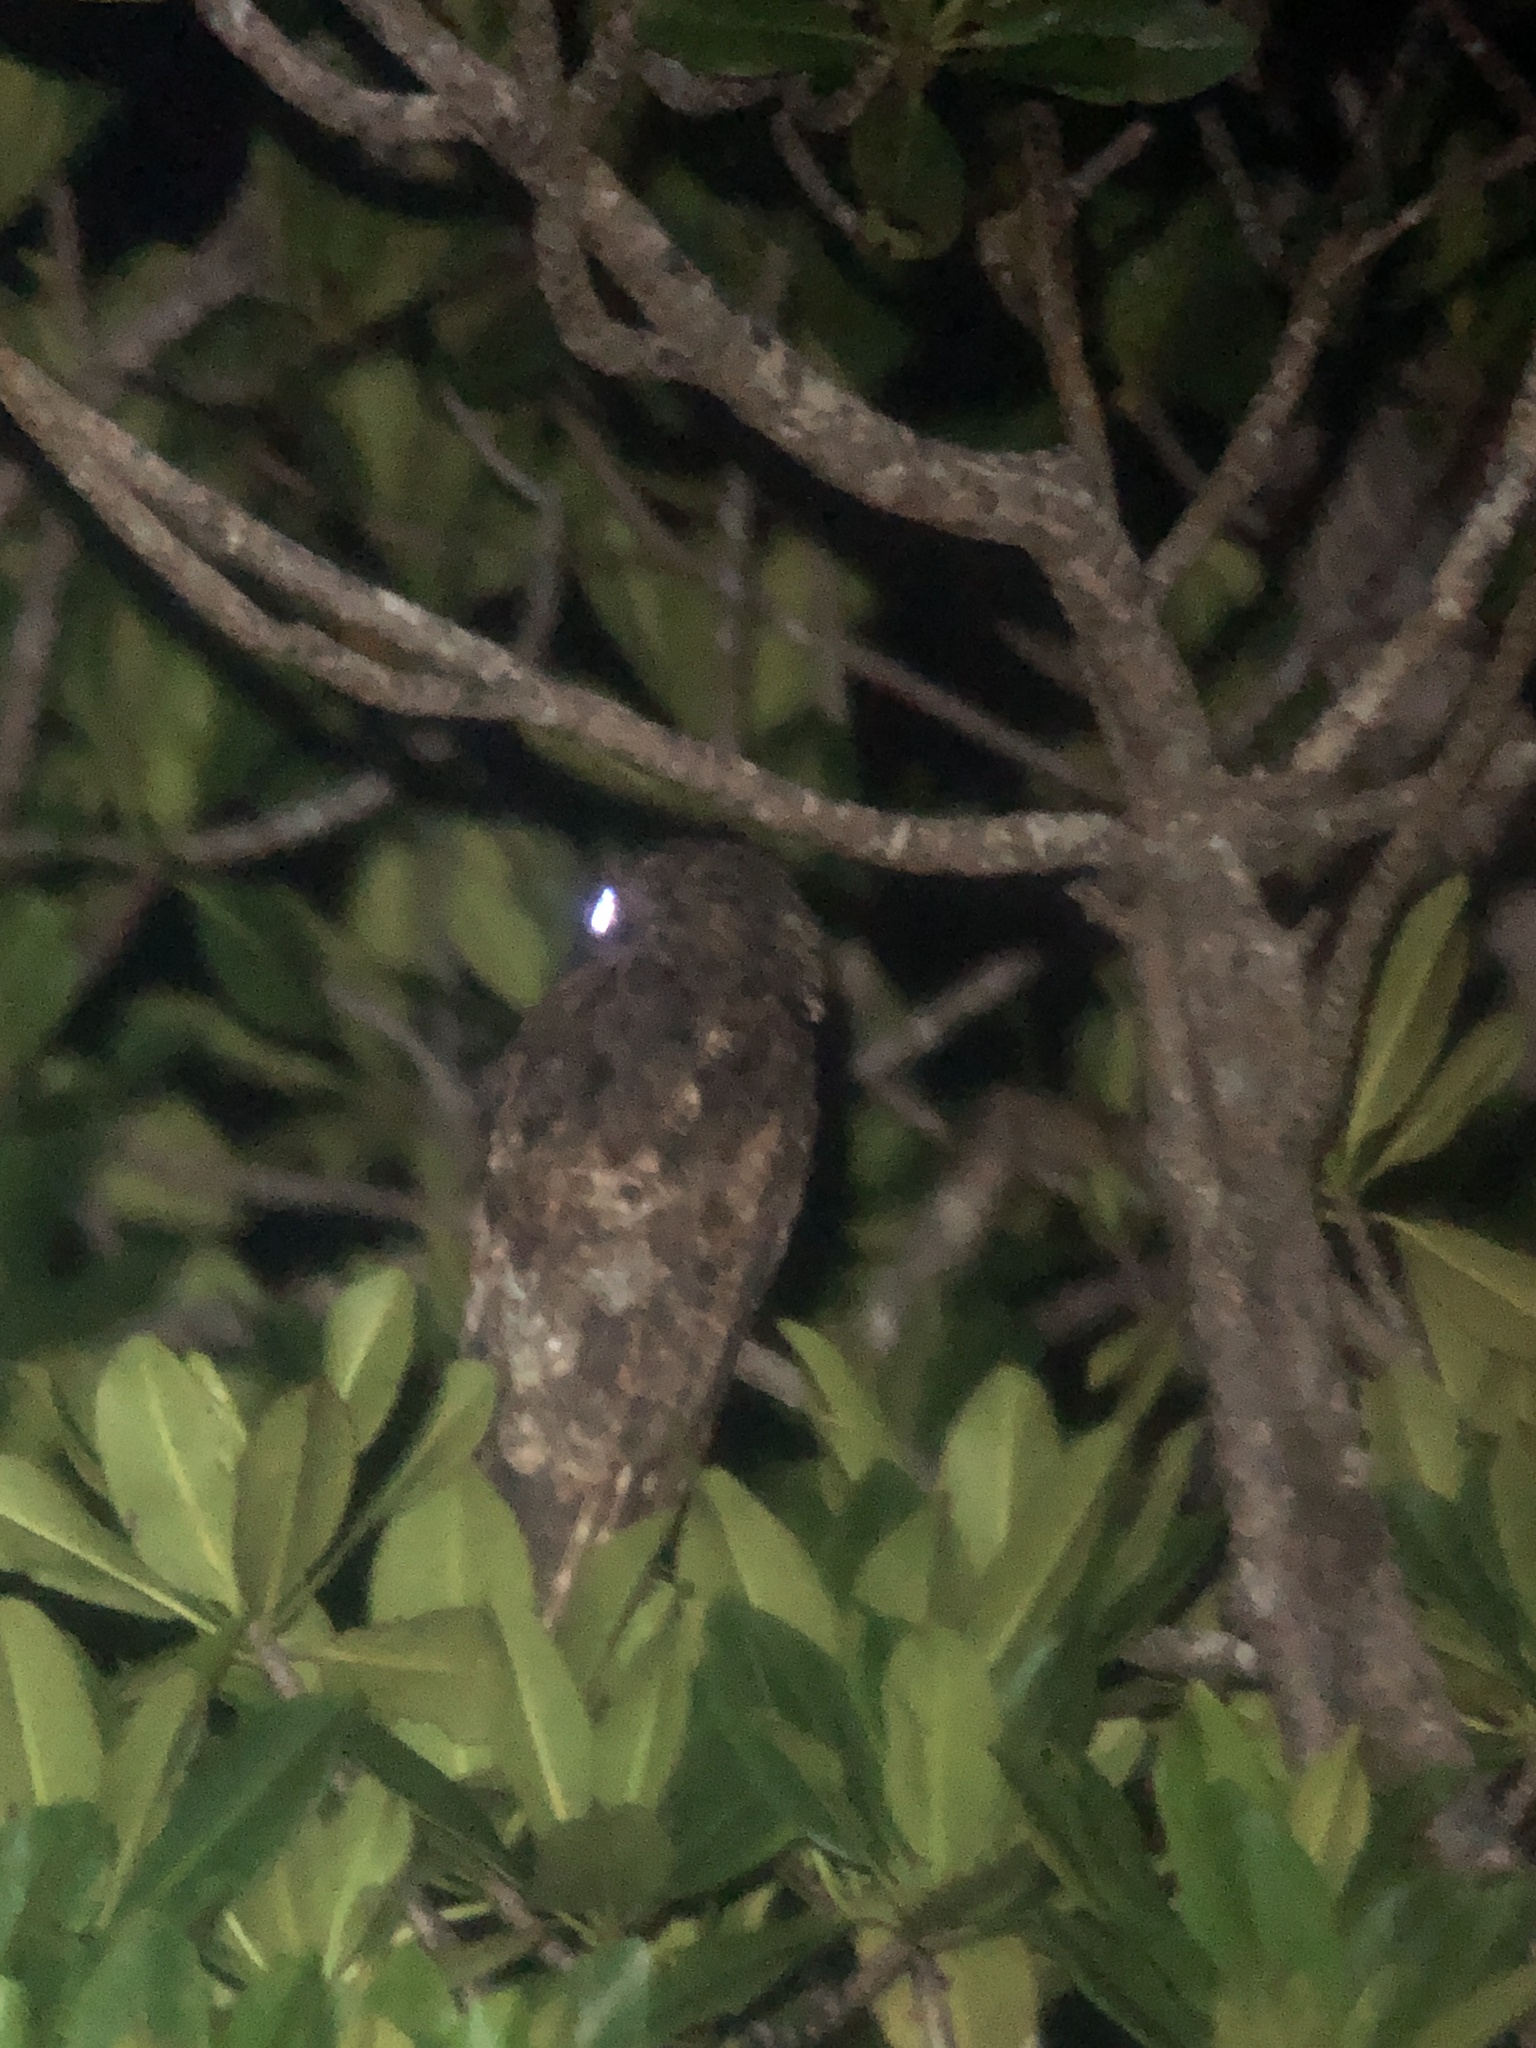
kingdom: Animalia
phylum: Chordata
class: Aves
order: Nyctibiiformes
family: Nyctibiidae
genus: Nyctibius
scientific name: Nyctibius griseus
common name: Common potoo
